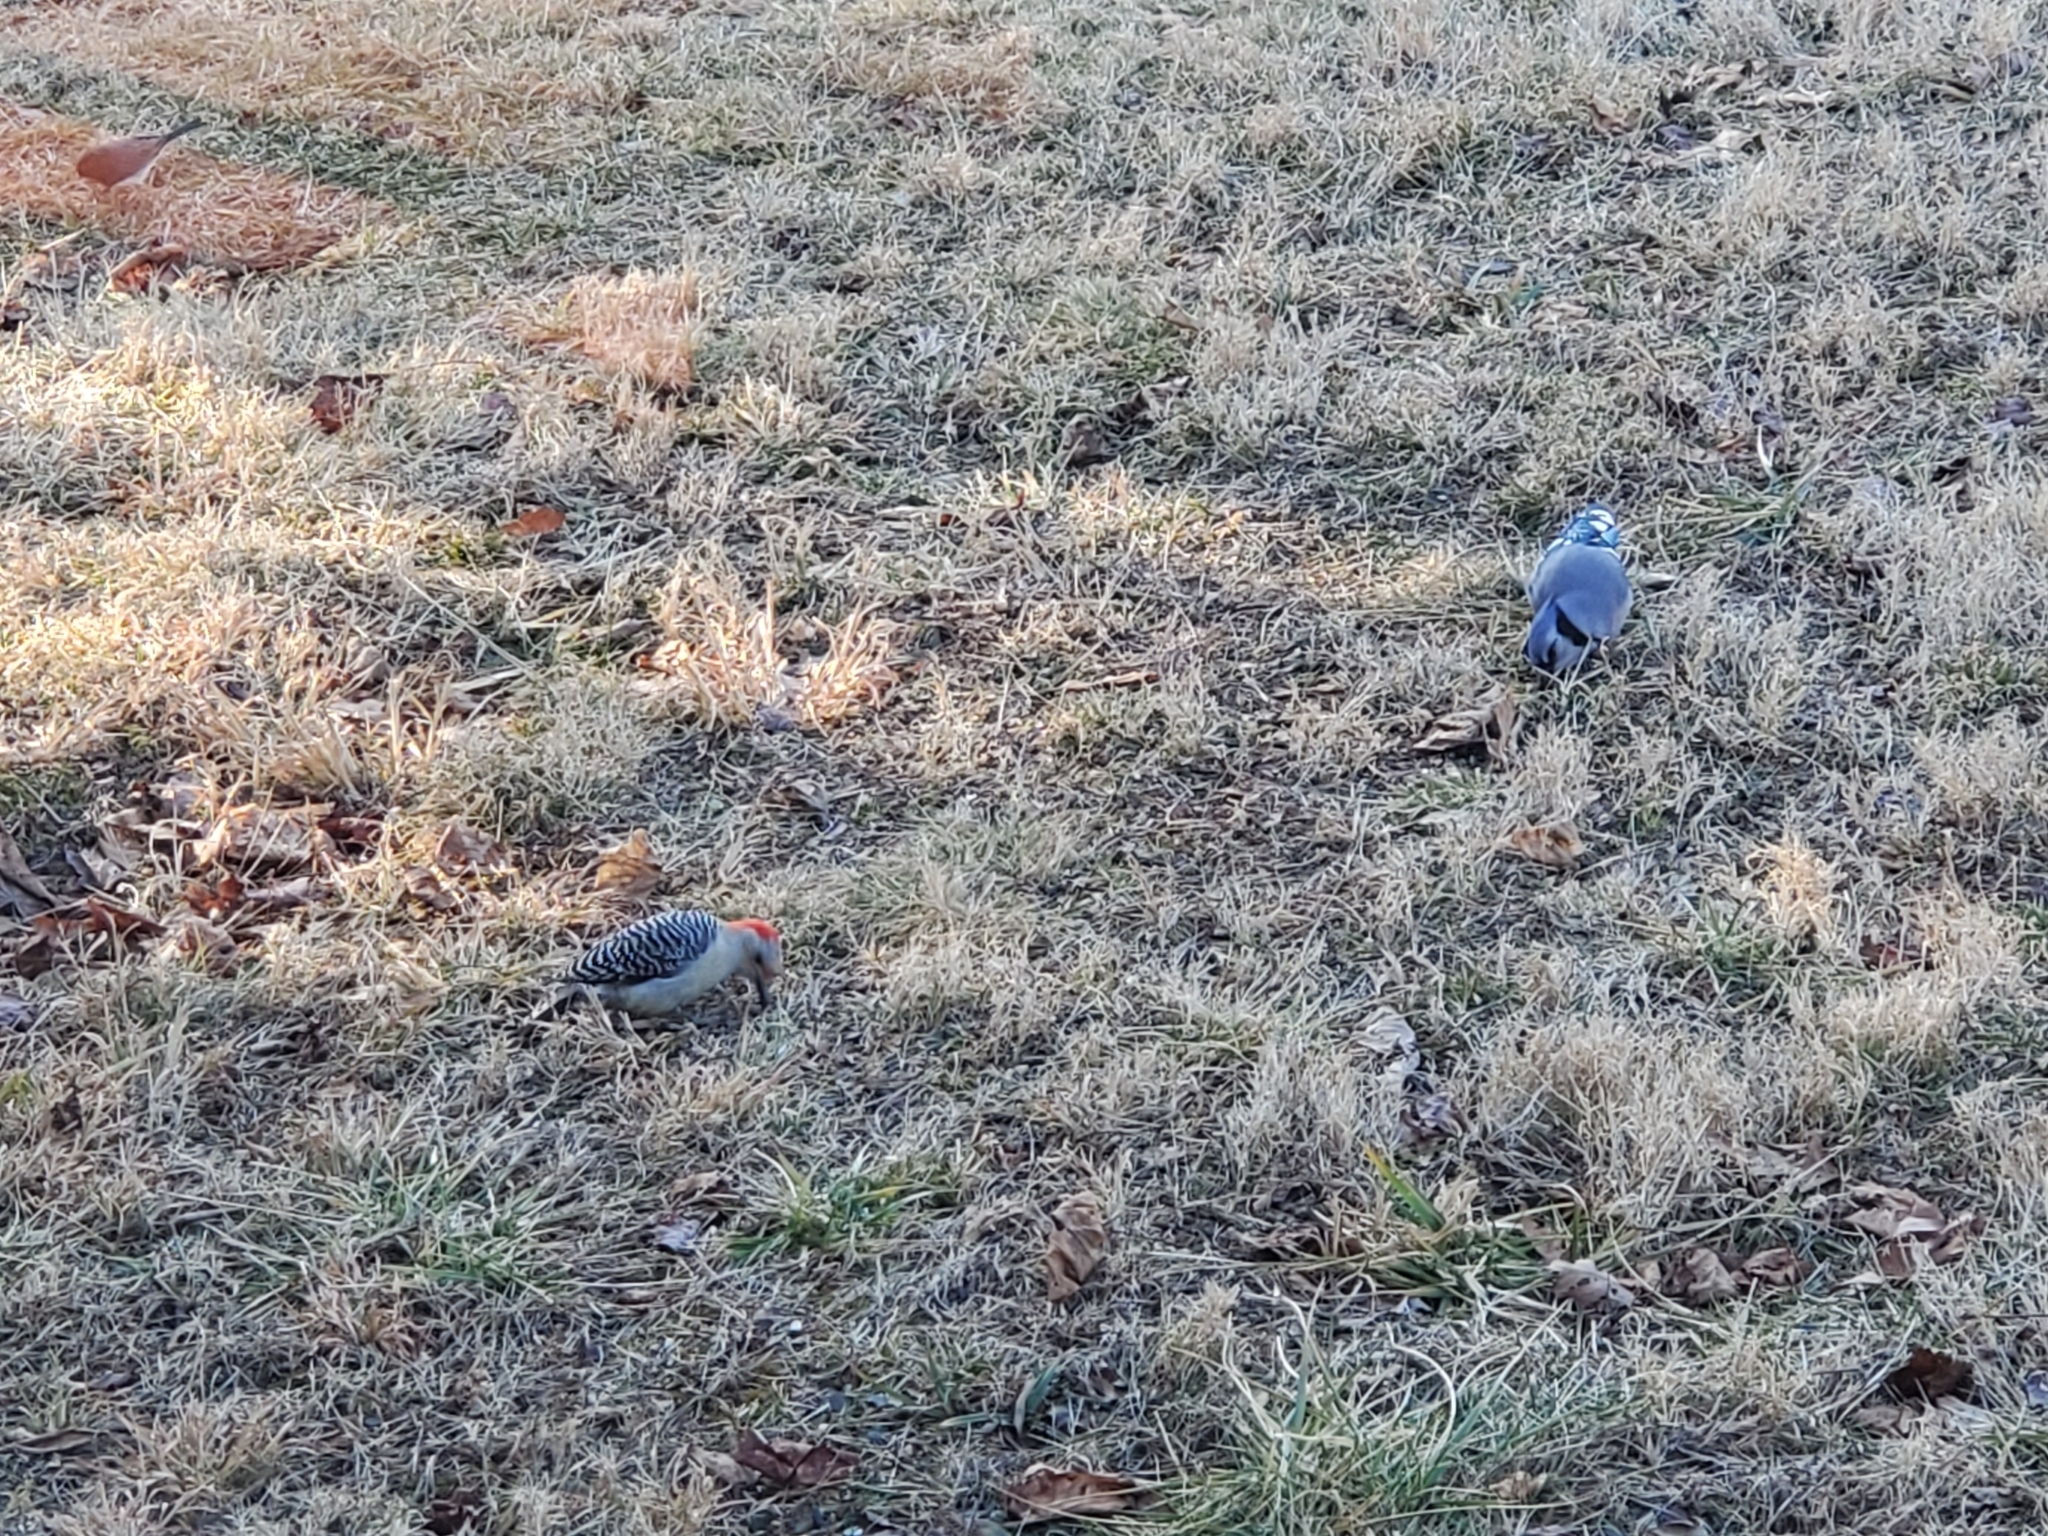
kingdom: Animalia
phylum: Chordata
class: Aves
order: Piciformes
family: Picidae
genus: Melanerpes
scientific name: Melanerpes carolinus
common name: Red-bellied woodpecker
